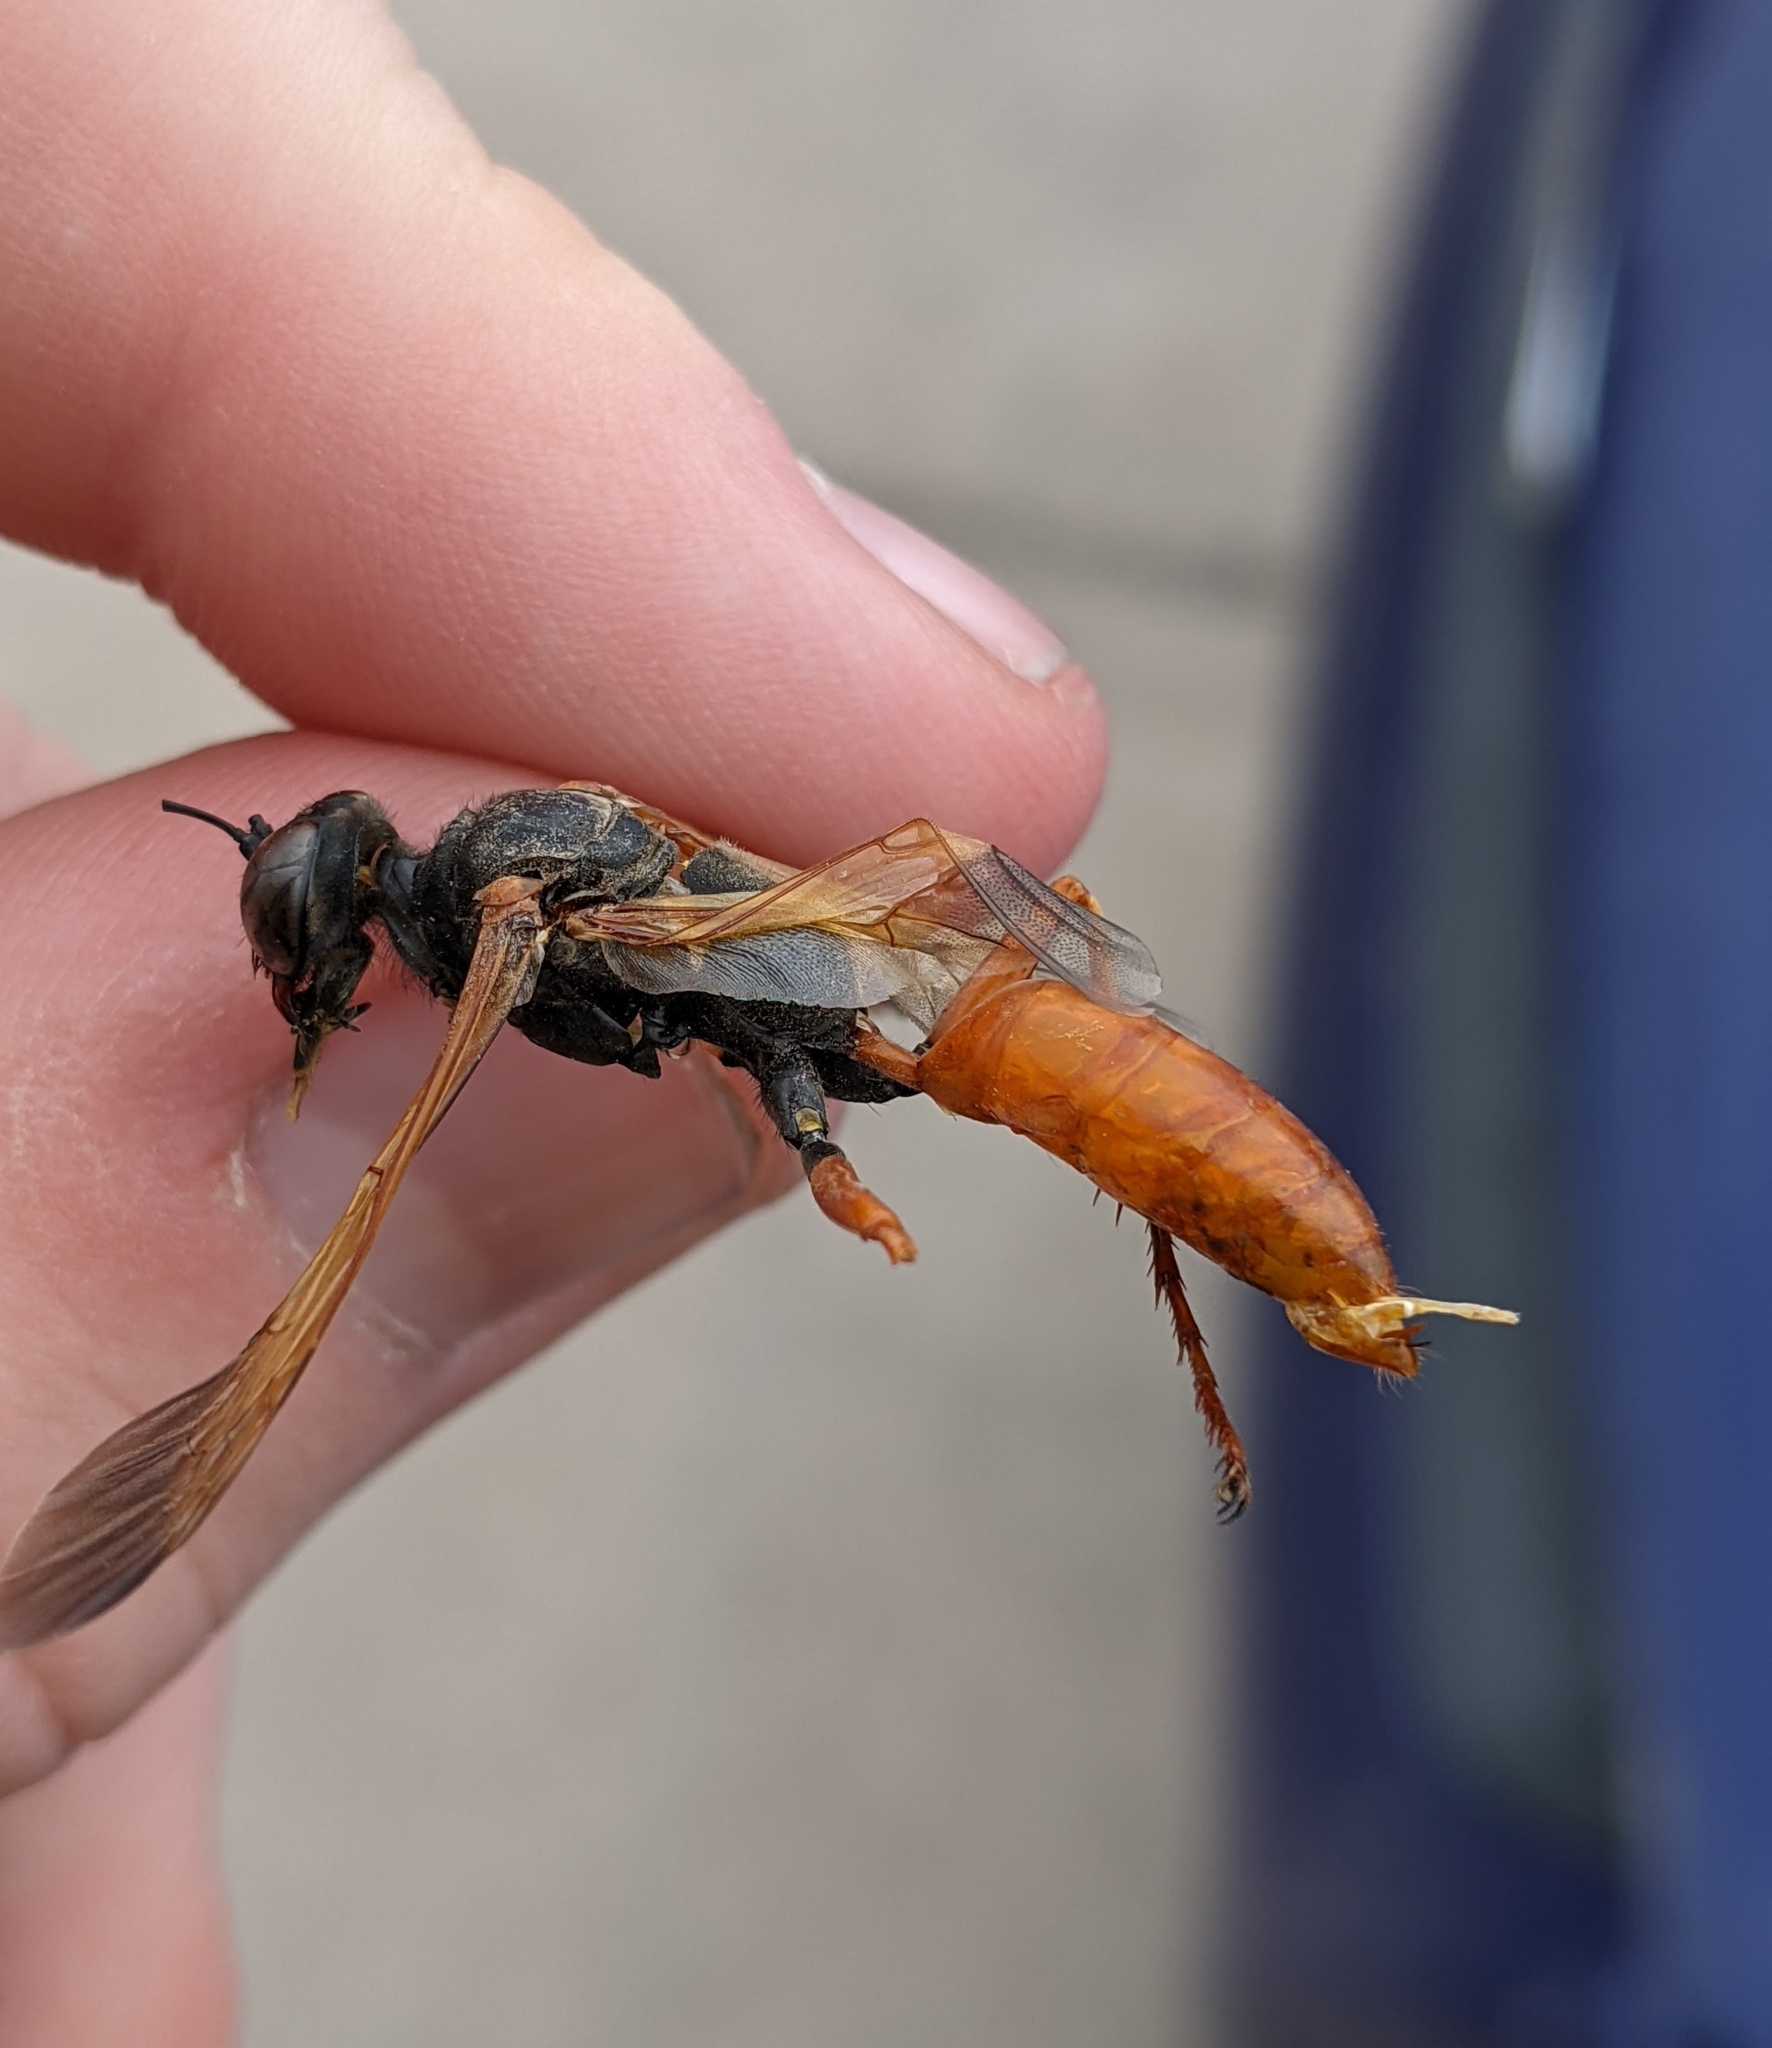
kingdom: Animalia
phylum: Arthropoda
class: Insecta
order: Hymenoptera
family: Sphecidae
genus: Sphex
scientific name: Sphex ashmeadi
